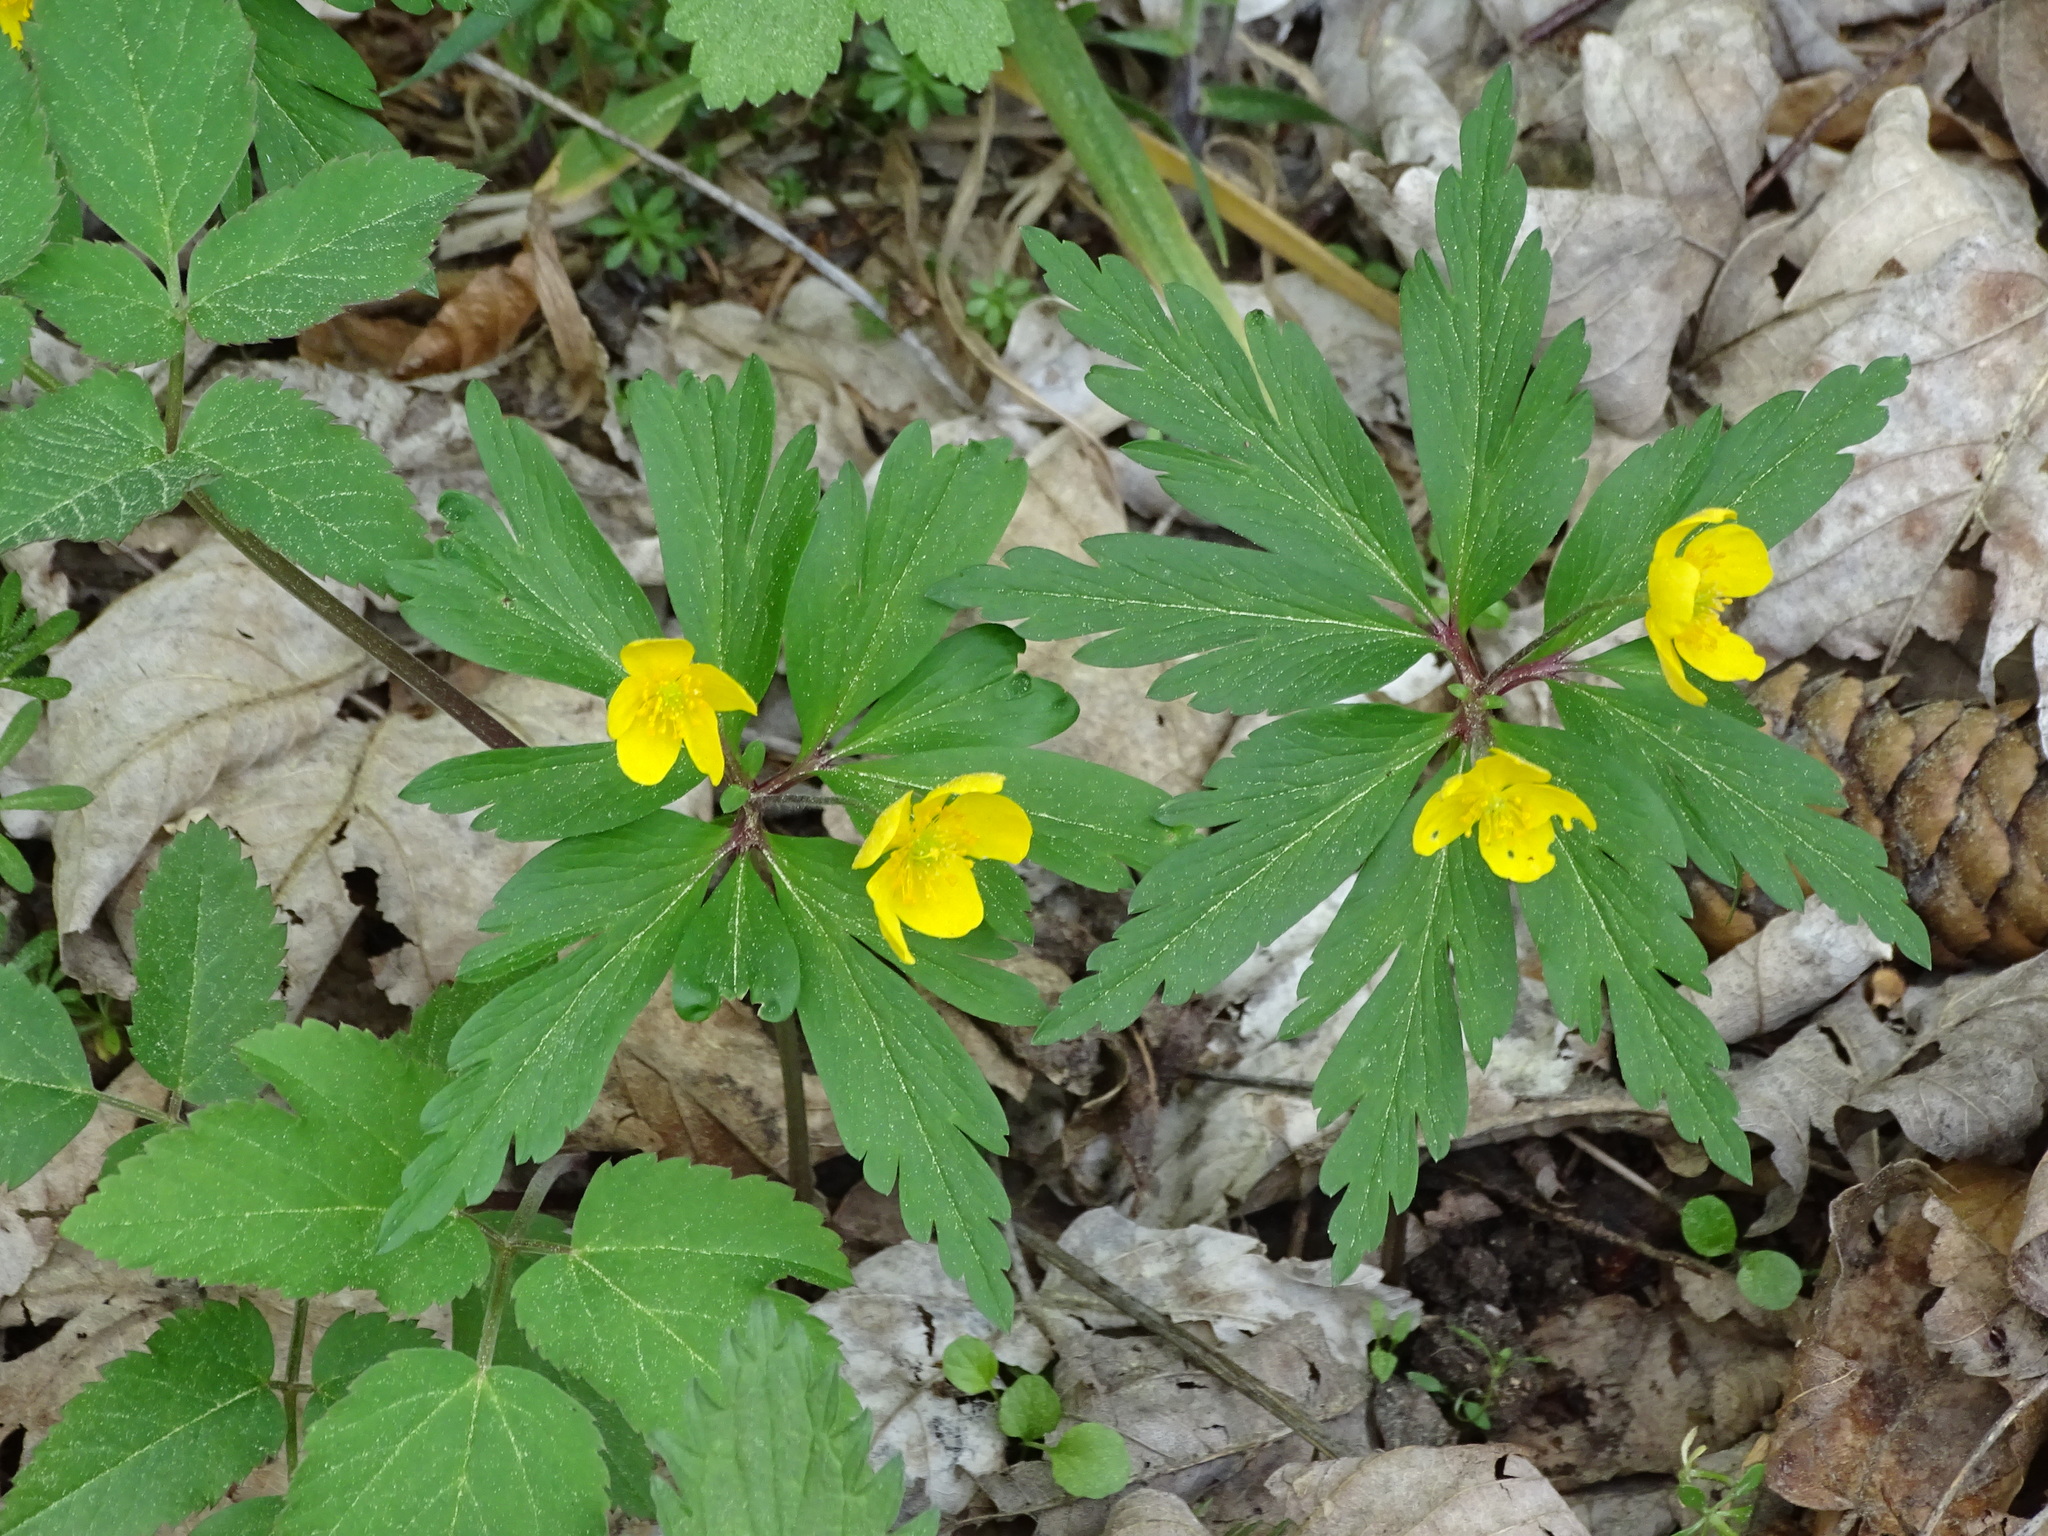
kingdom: Plantae
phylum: Tracheophyta
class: Magnoliopsida
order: Ranunculales
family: Ranunculaceae
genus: Anemone
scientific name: Anemone ranunculoides
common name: Yellow anemone
